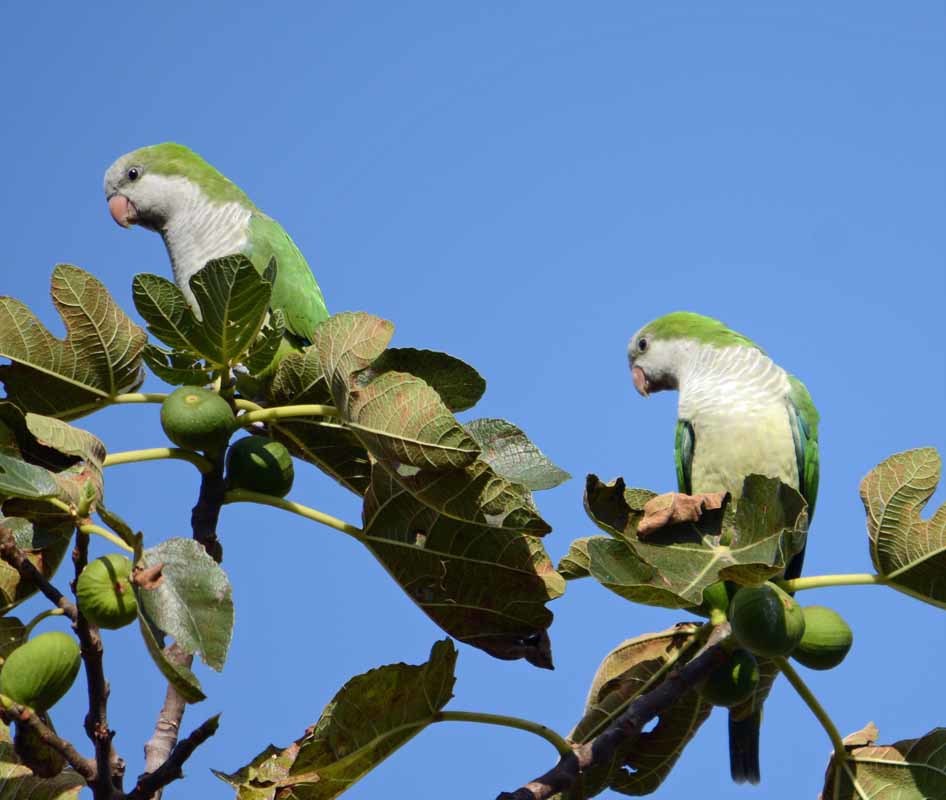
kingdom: Animalia
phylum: Chordata
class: Aves
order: Psittaciformes
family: Psittacidae
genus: Myiopsitta
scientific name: Myiopsitta monachus
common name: Monk parakeet
